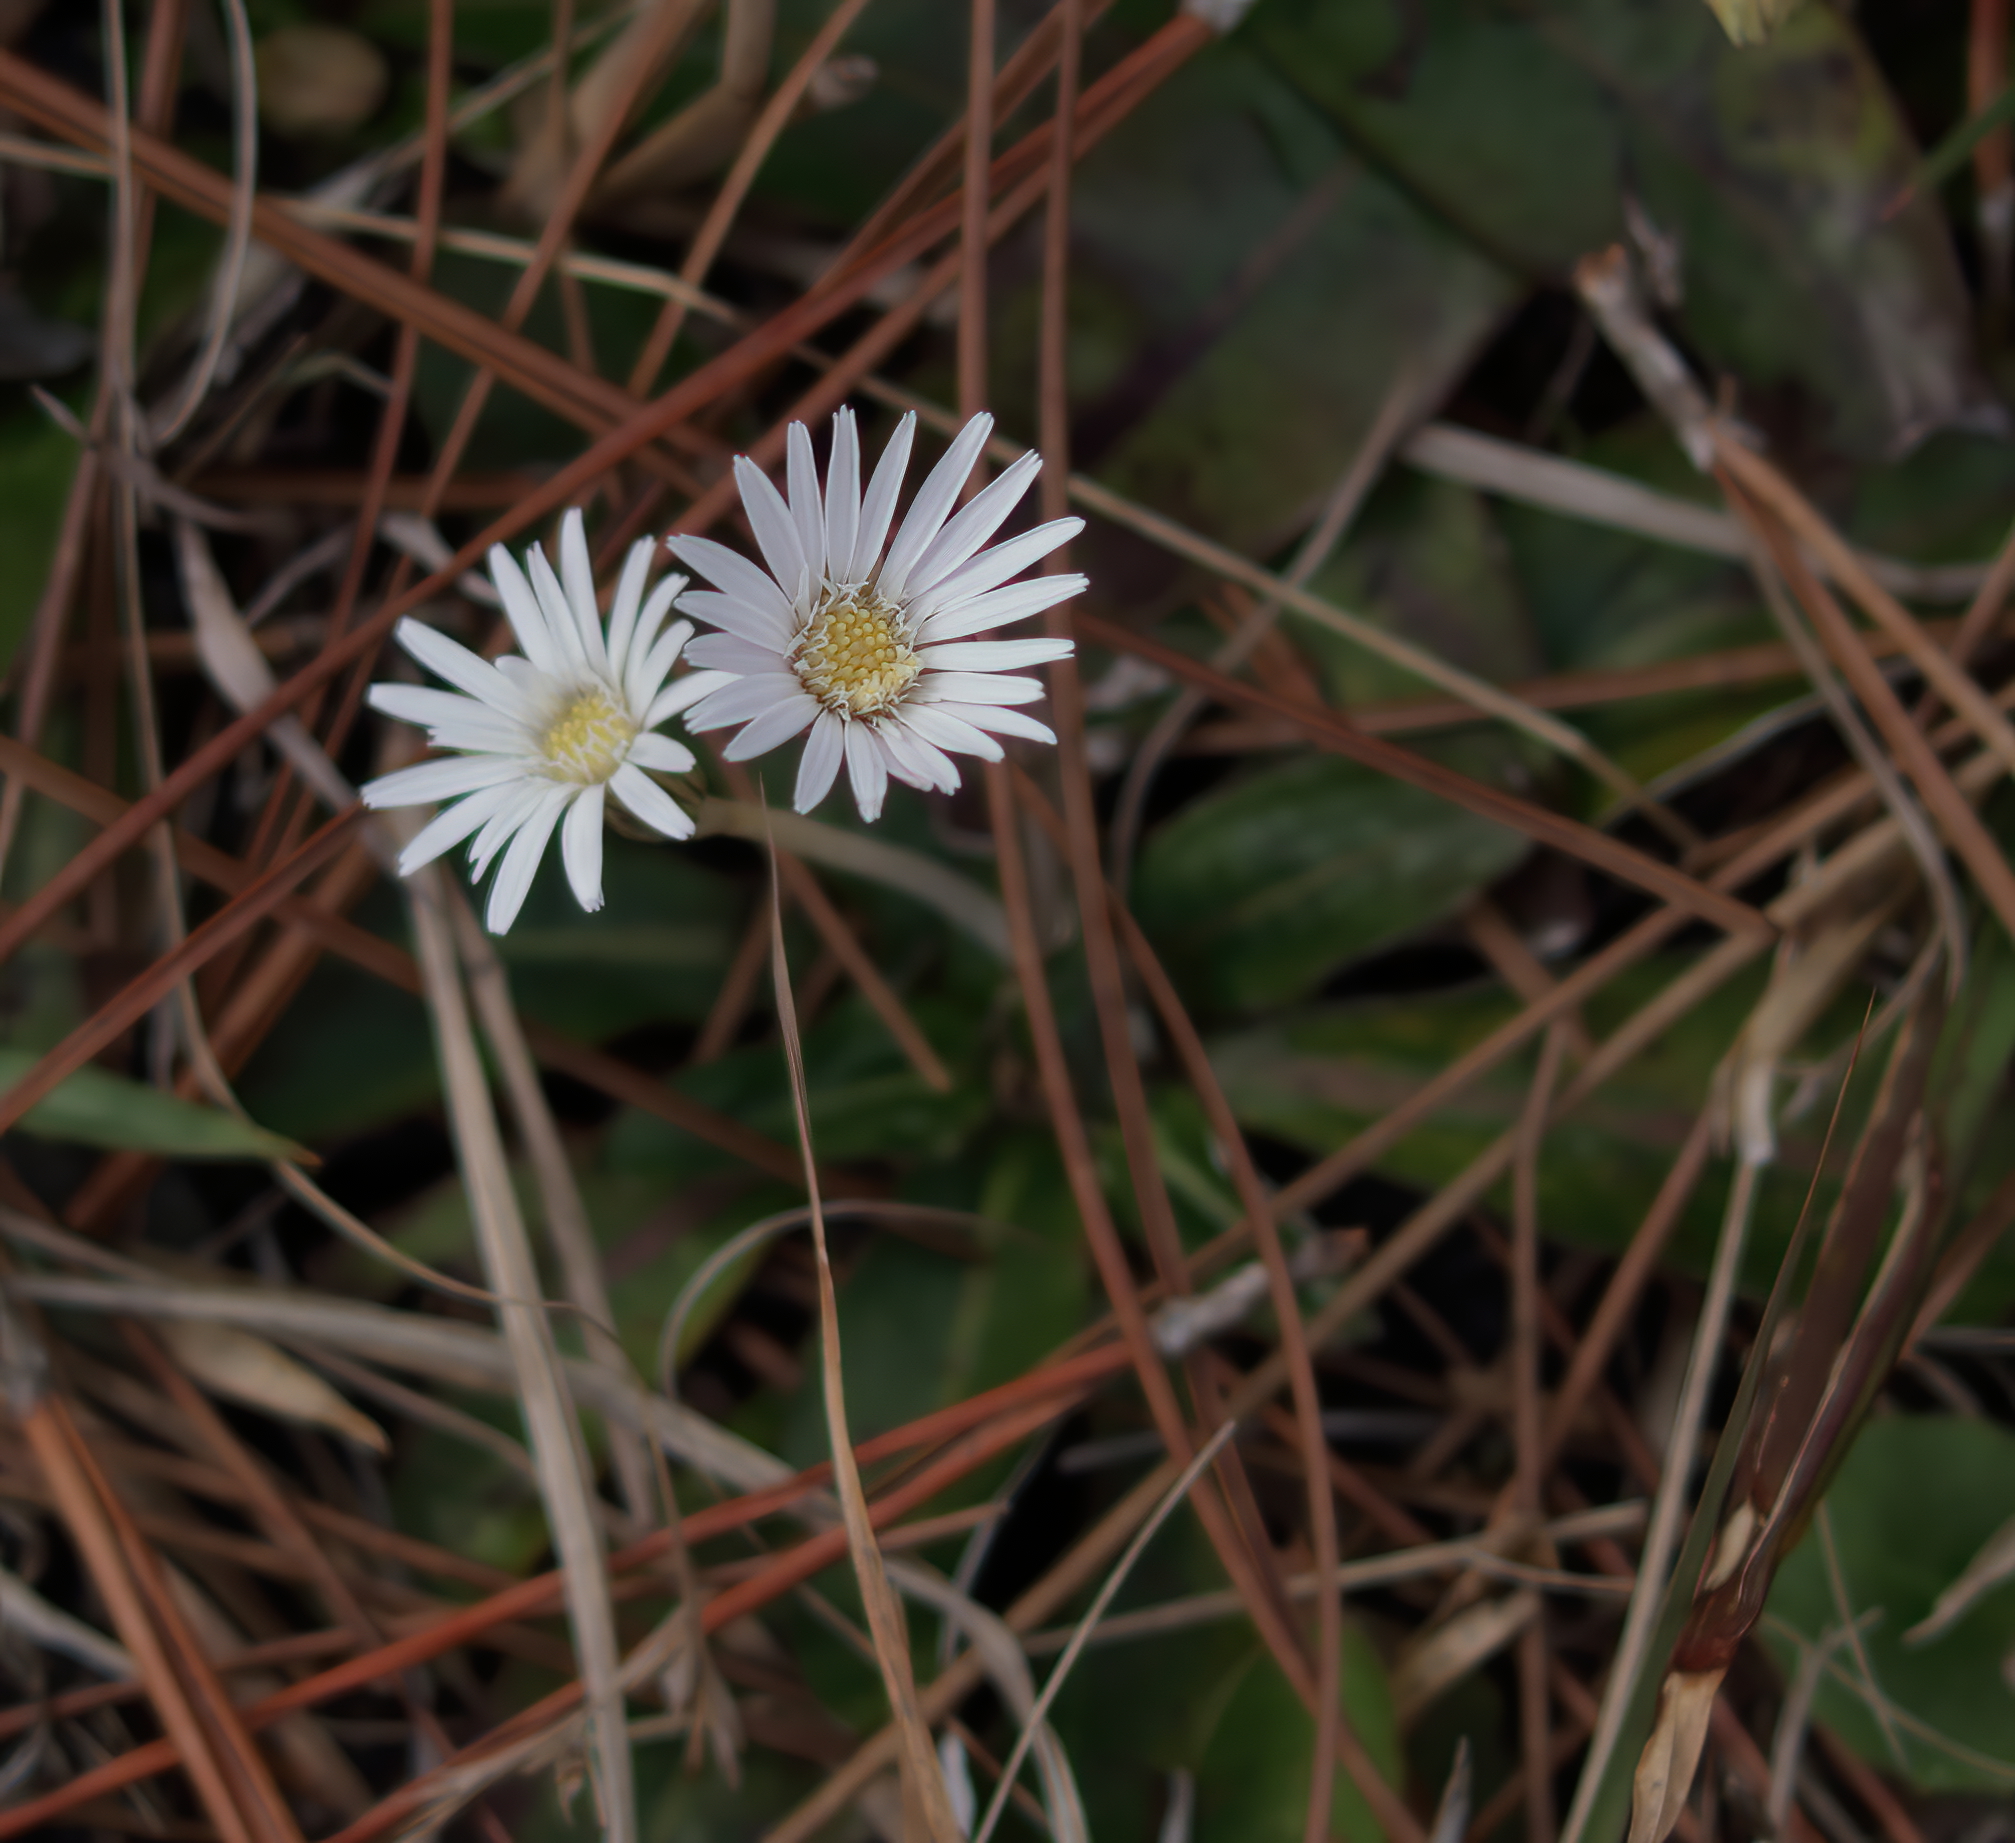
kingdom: Plantae
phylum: Tracheophyta
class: Magnoliopsida
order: Asterales
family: Asteraceae
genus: Chaptalia
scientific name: Chaptalia tomentosa
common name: Woolly sunbonnet
